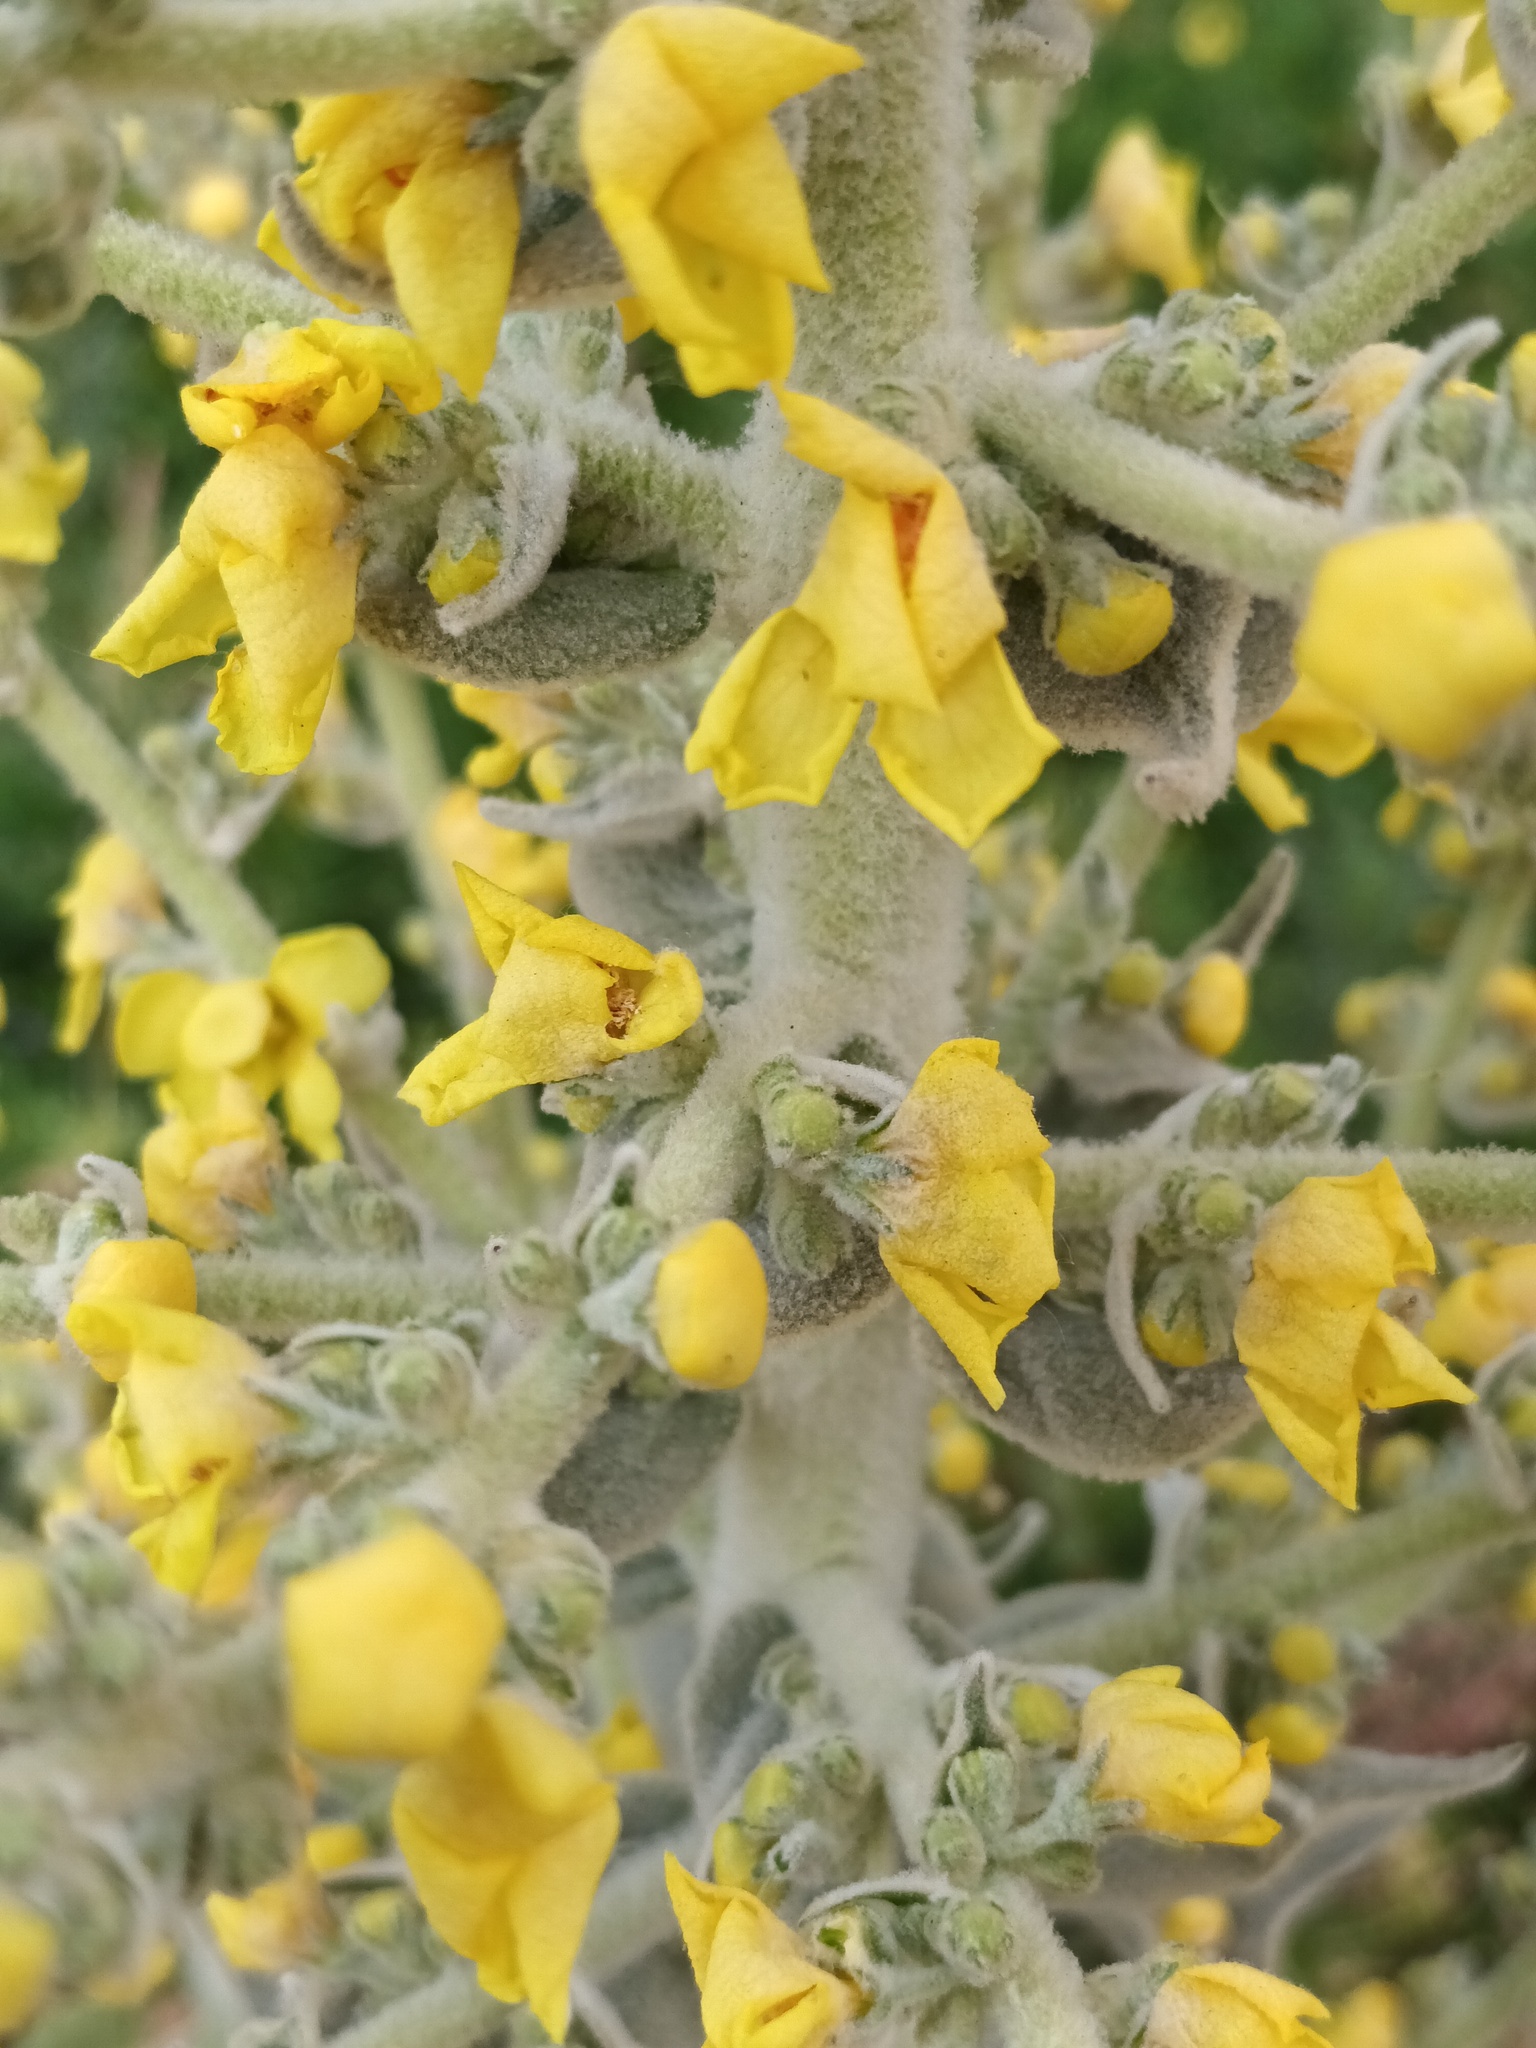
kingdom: Plantae
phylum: Tracheophyta
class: Magnoliopsida
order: Lamiales
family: Scrophulariaceae
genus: Verbascum
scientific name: Verbascum pulverulentum
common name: Broad-leaf mullein
